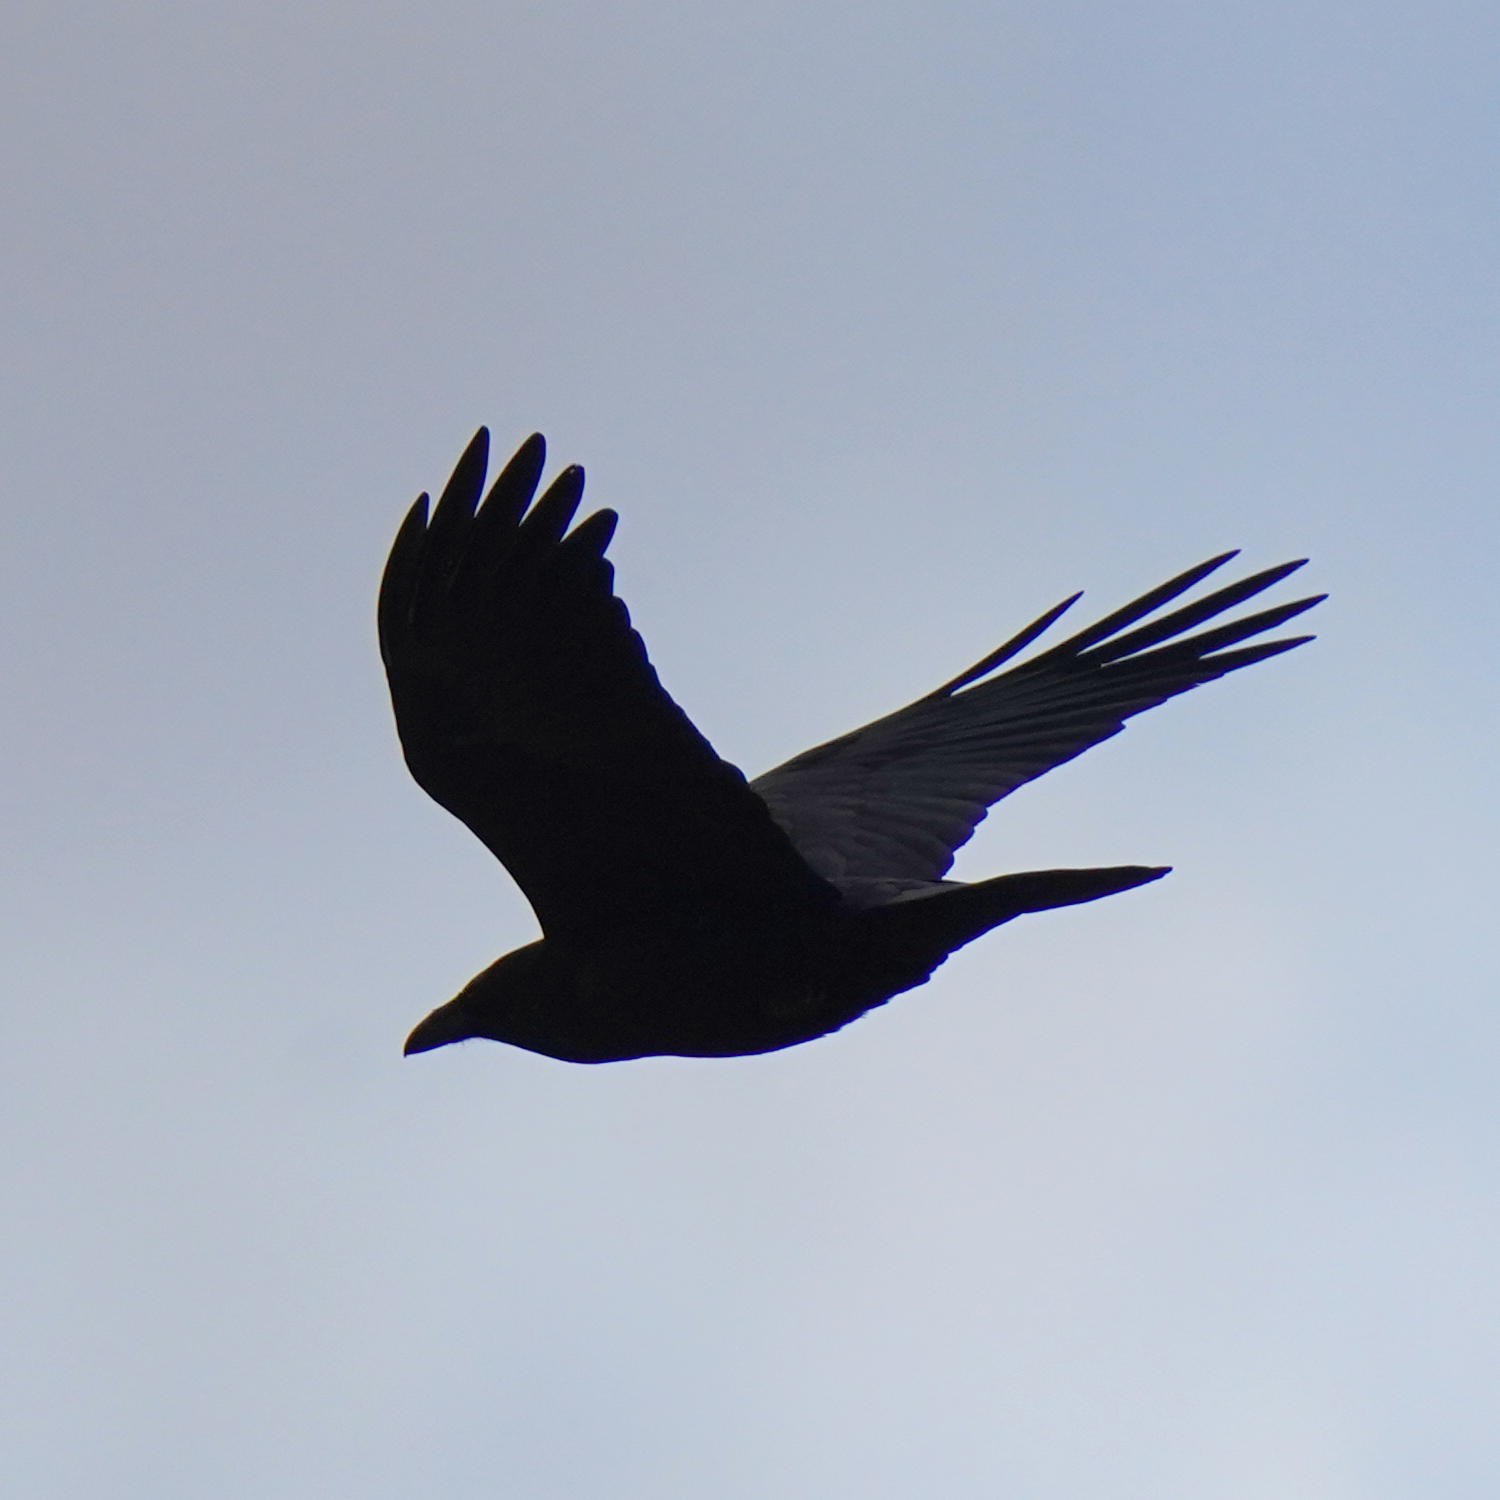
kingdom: Animalia
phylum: Chordata
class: Aves
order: Passeriformes
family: Corvidae
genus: Corvus
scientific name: Corvus corax
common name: Common raven
